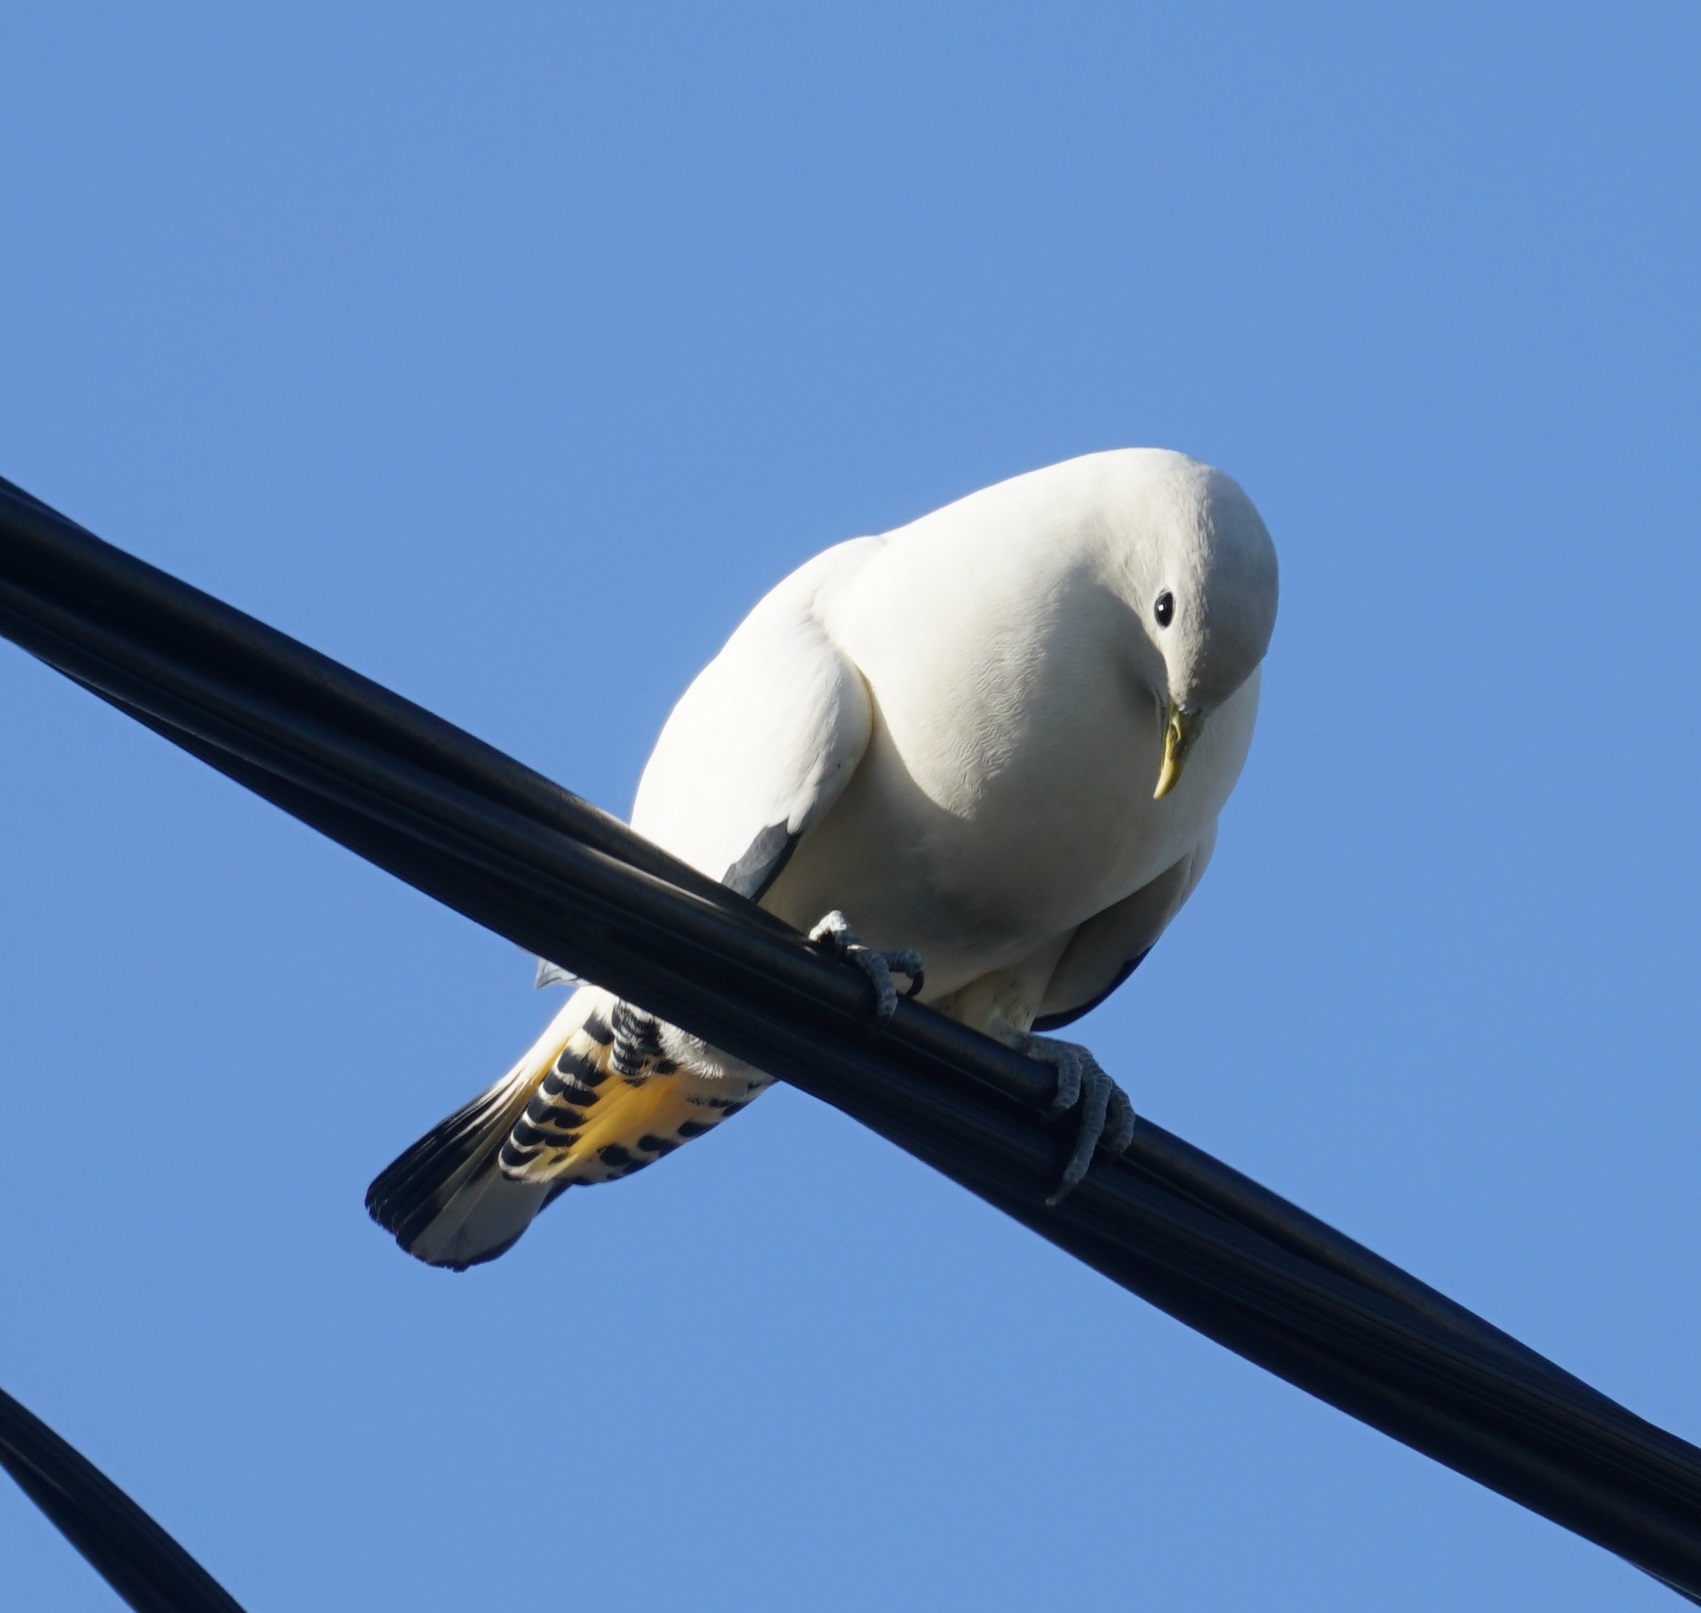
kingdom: Animalia
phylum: Chordata
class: Aves
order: Columbiformes
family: Columbidae
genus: Ducula
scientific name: Ducula spilorrhoa
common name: Torresian imperial pigeon
